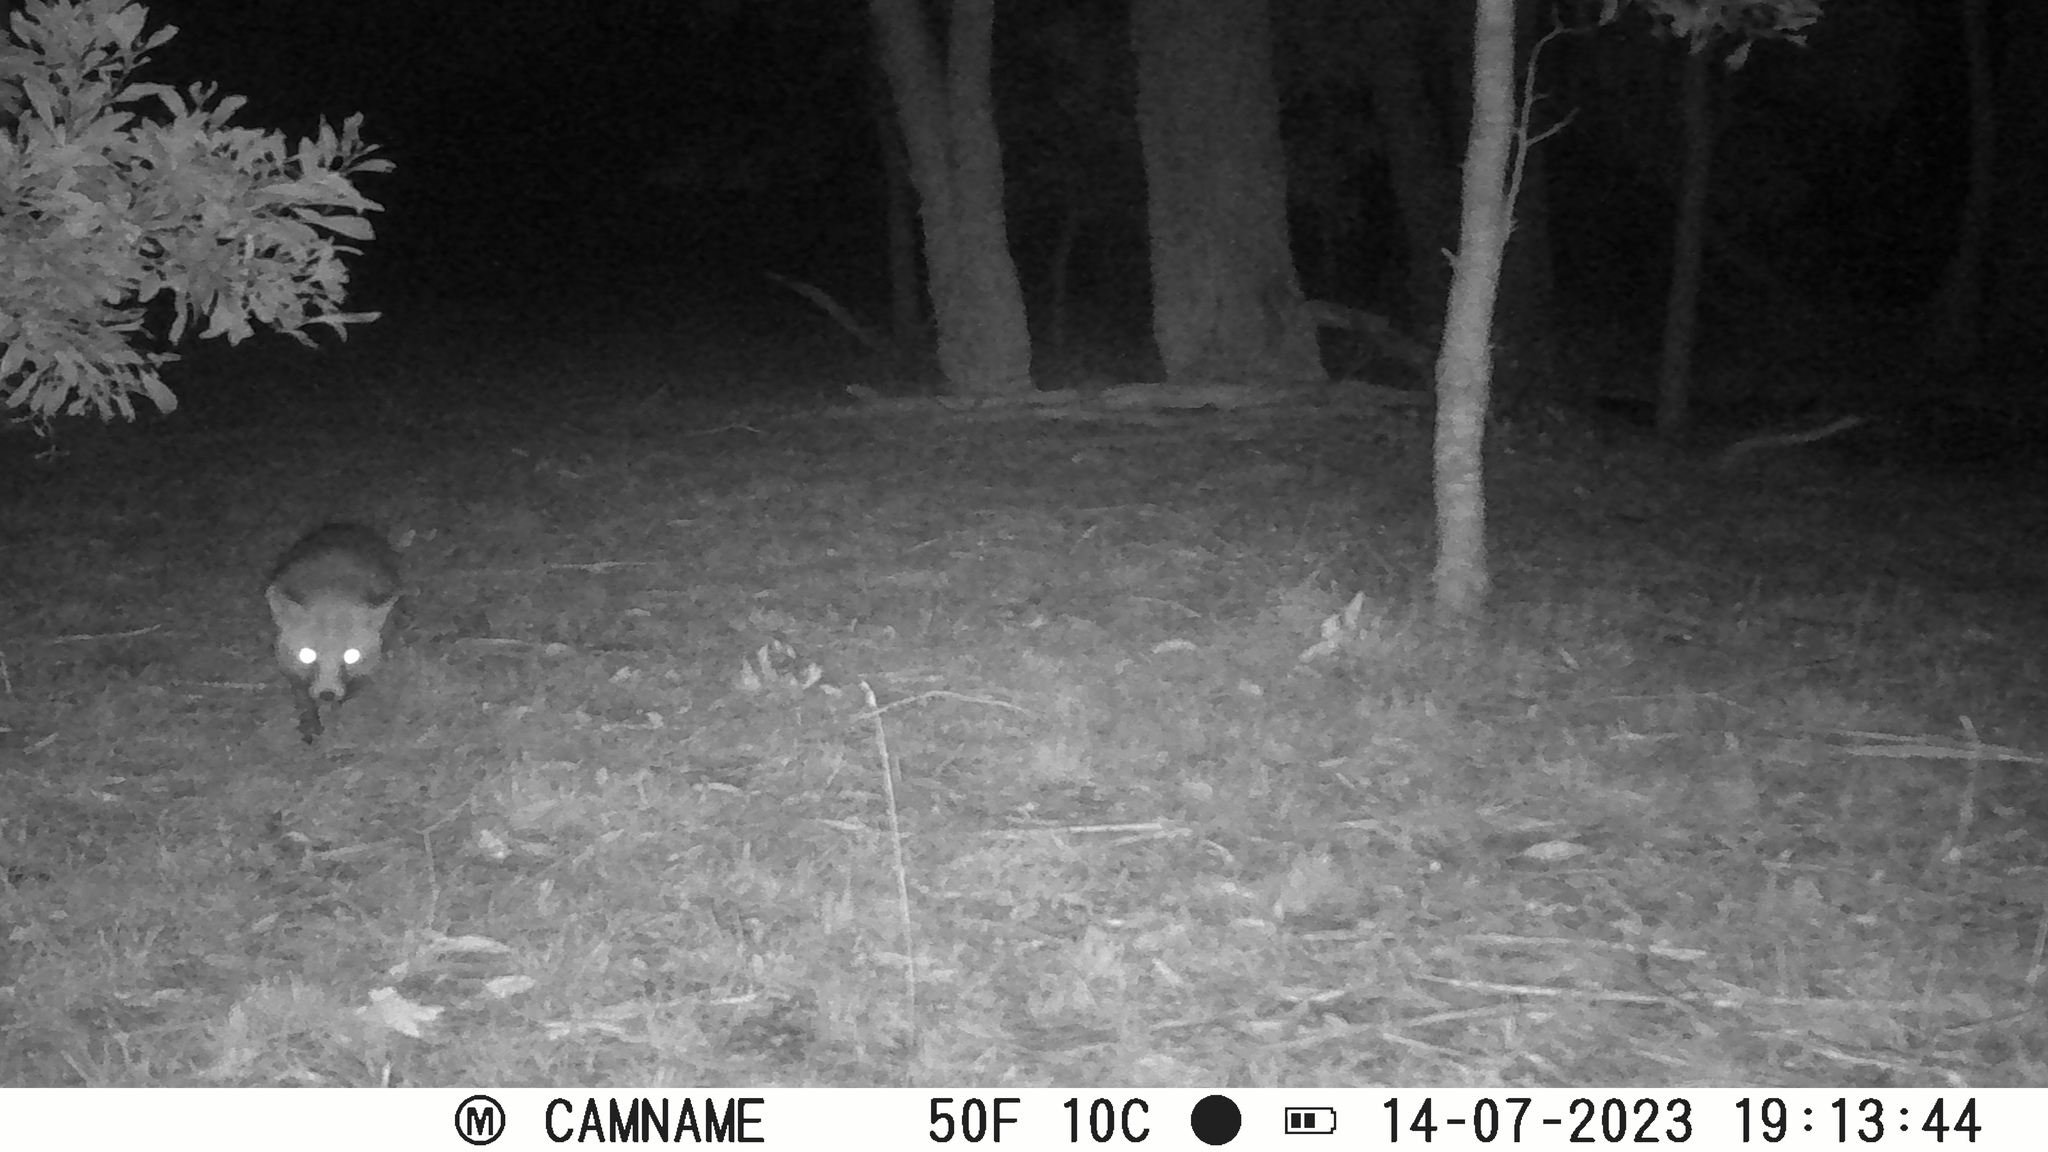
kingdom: Animalia
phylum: Chordata
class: Mammalia
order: Carnivora
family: Canidae
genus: Vulpes
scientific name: Vulpes vulpes
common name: Red fox
